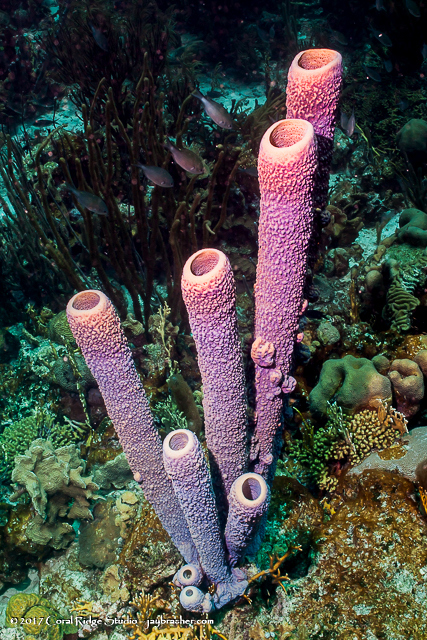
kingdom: Animalia
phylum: Porifera
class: Demospongiae
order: Verongiida
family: Aplysinidae
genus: Aplysina
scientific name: Aplysina archeri
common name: Stove-pipe sponge
